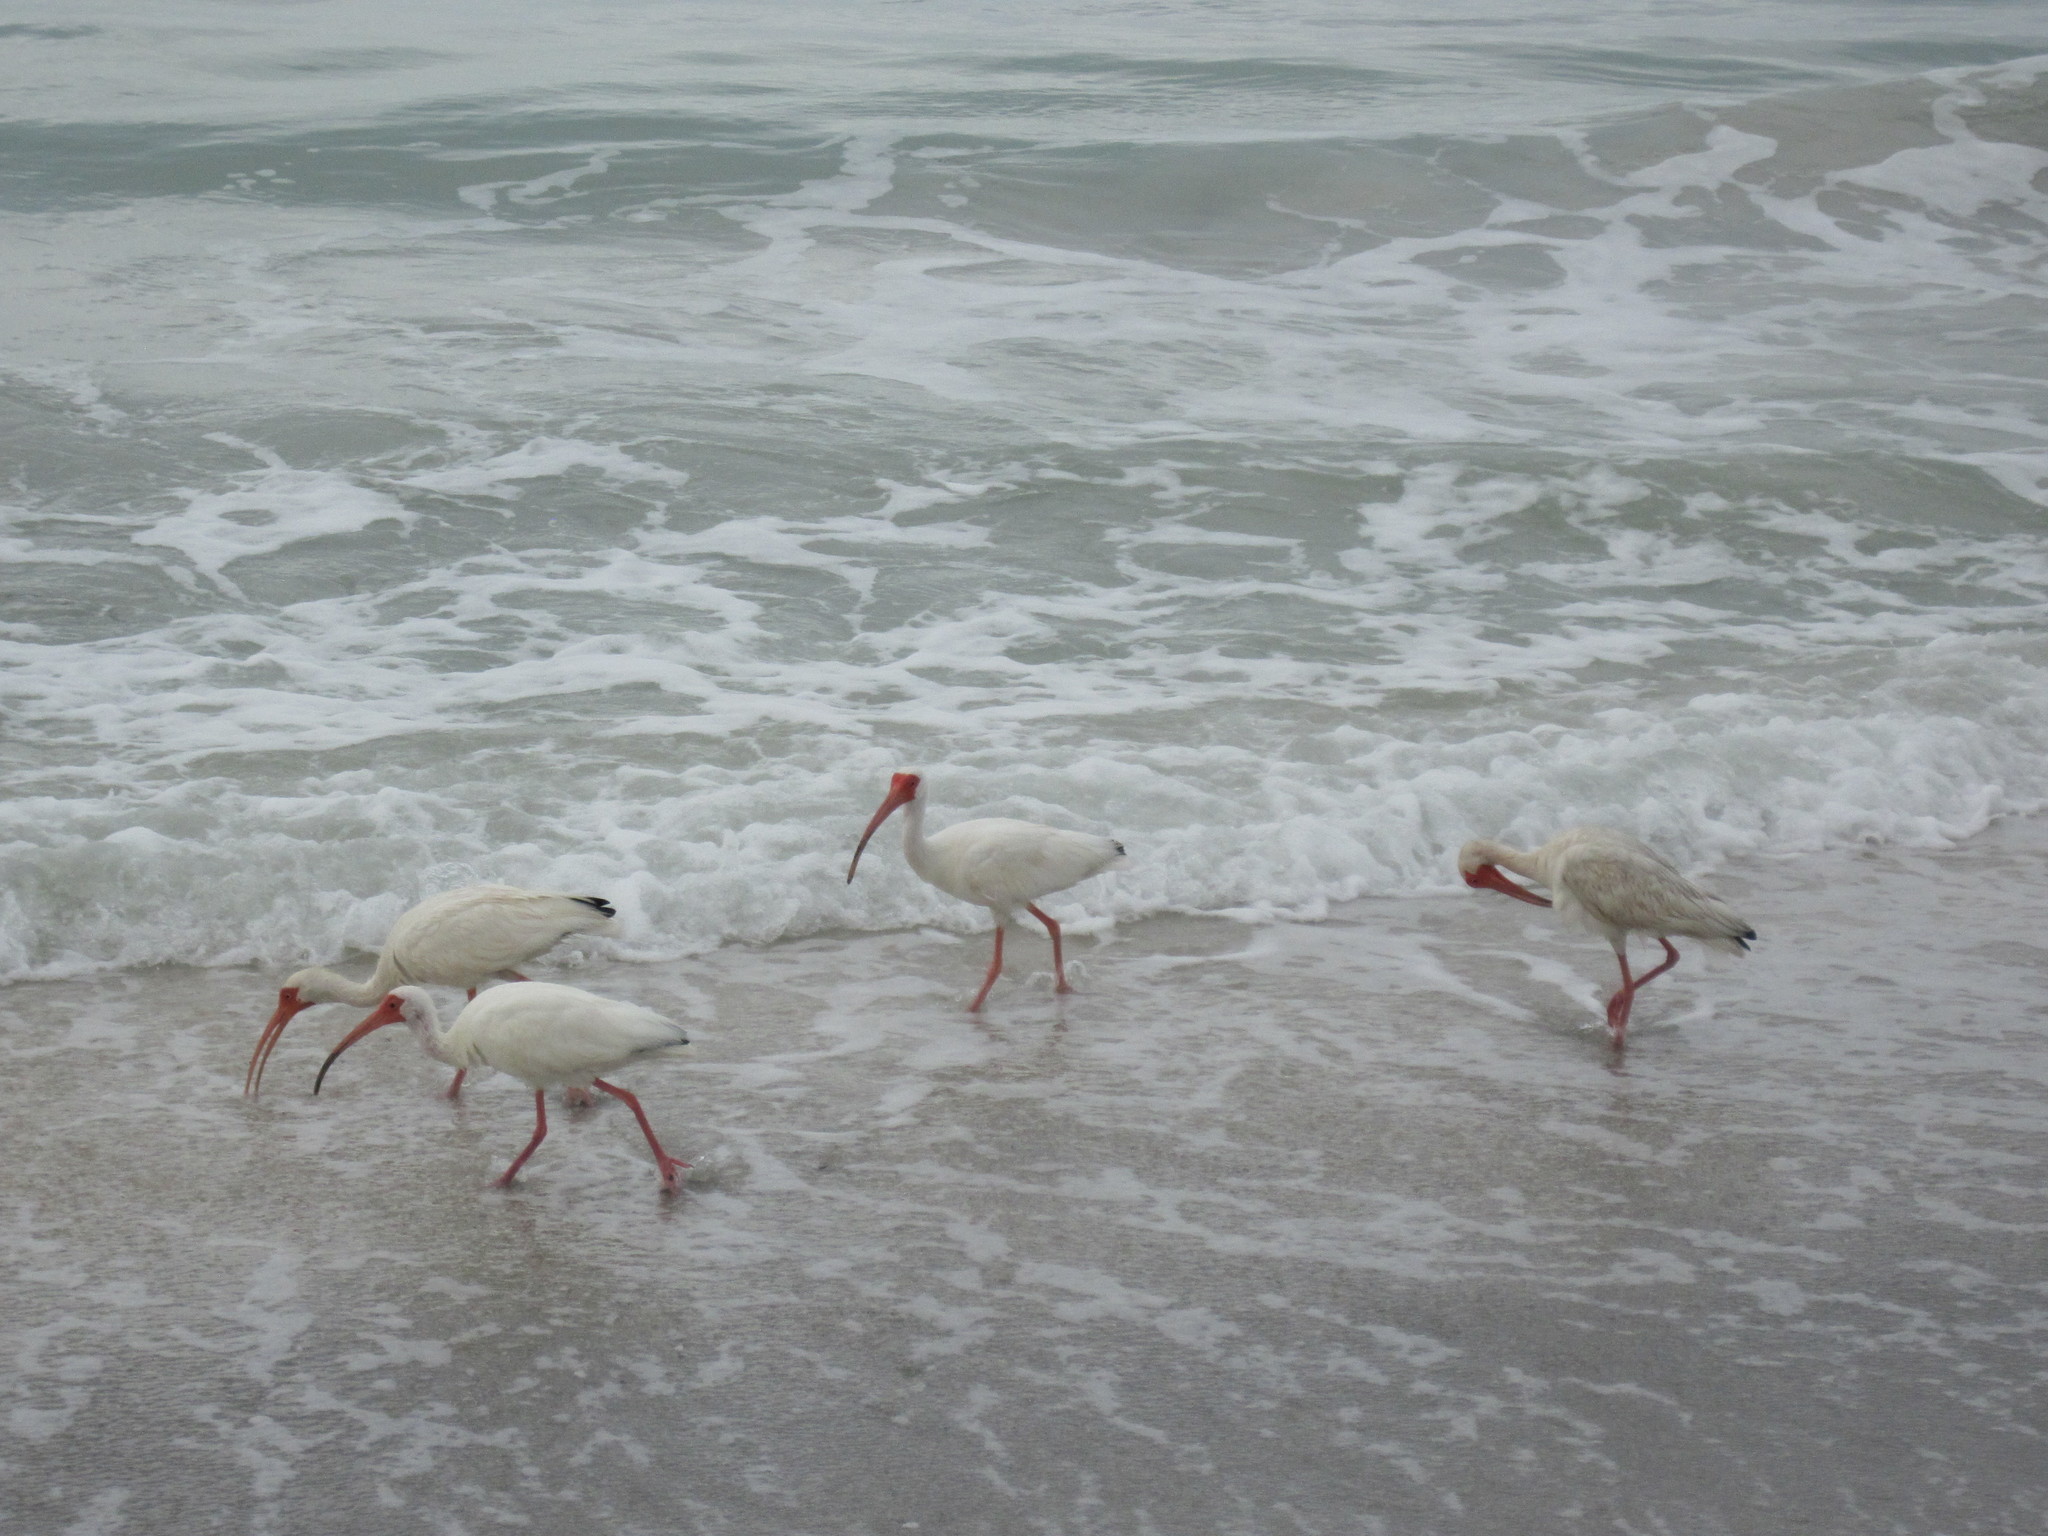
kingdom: Animalia
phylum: Chordata
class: Aves
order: Pelecaniformes
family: Threskiornithidae
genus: Eudocimus
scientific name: Eudocimus albus
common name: White ibis
